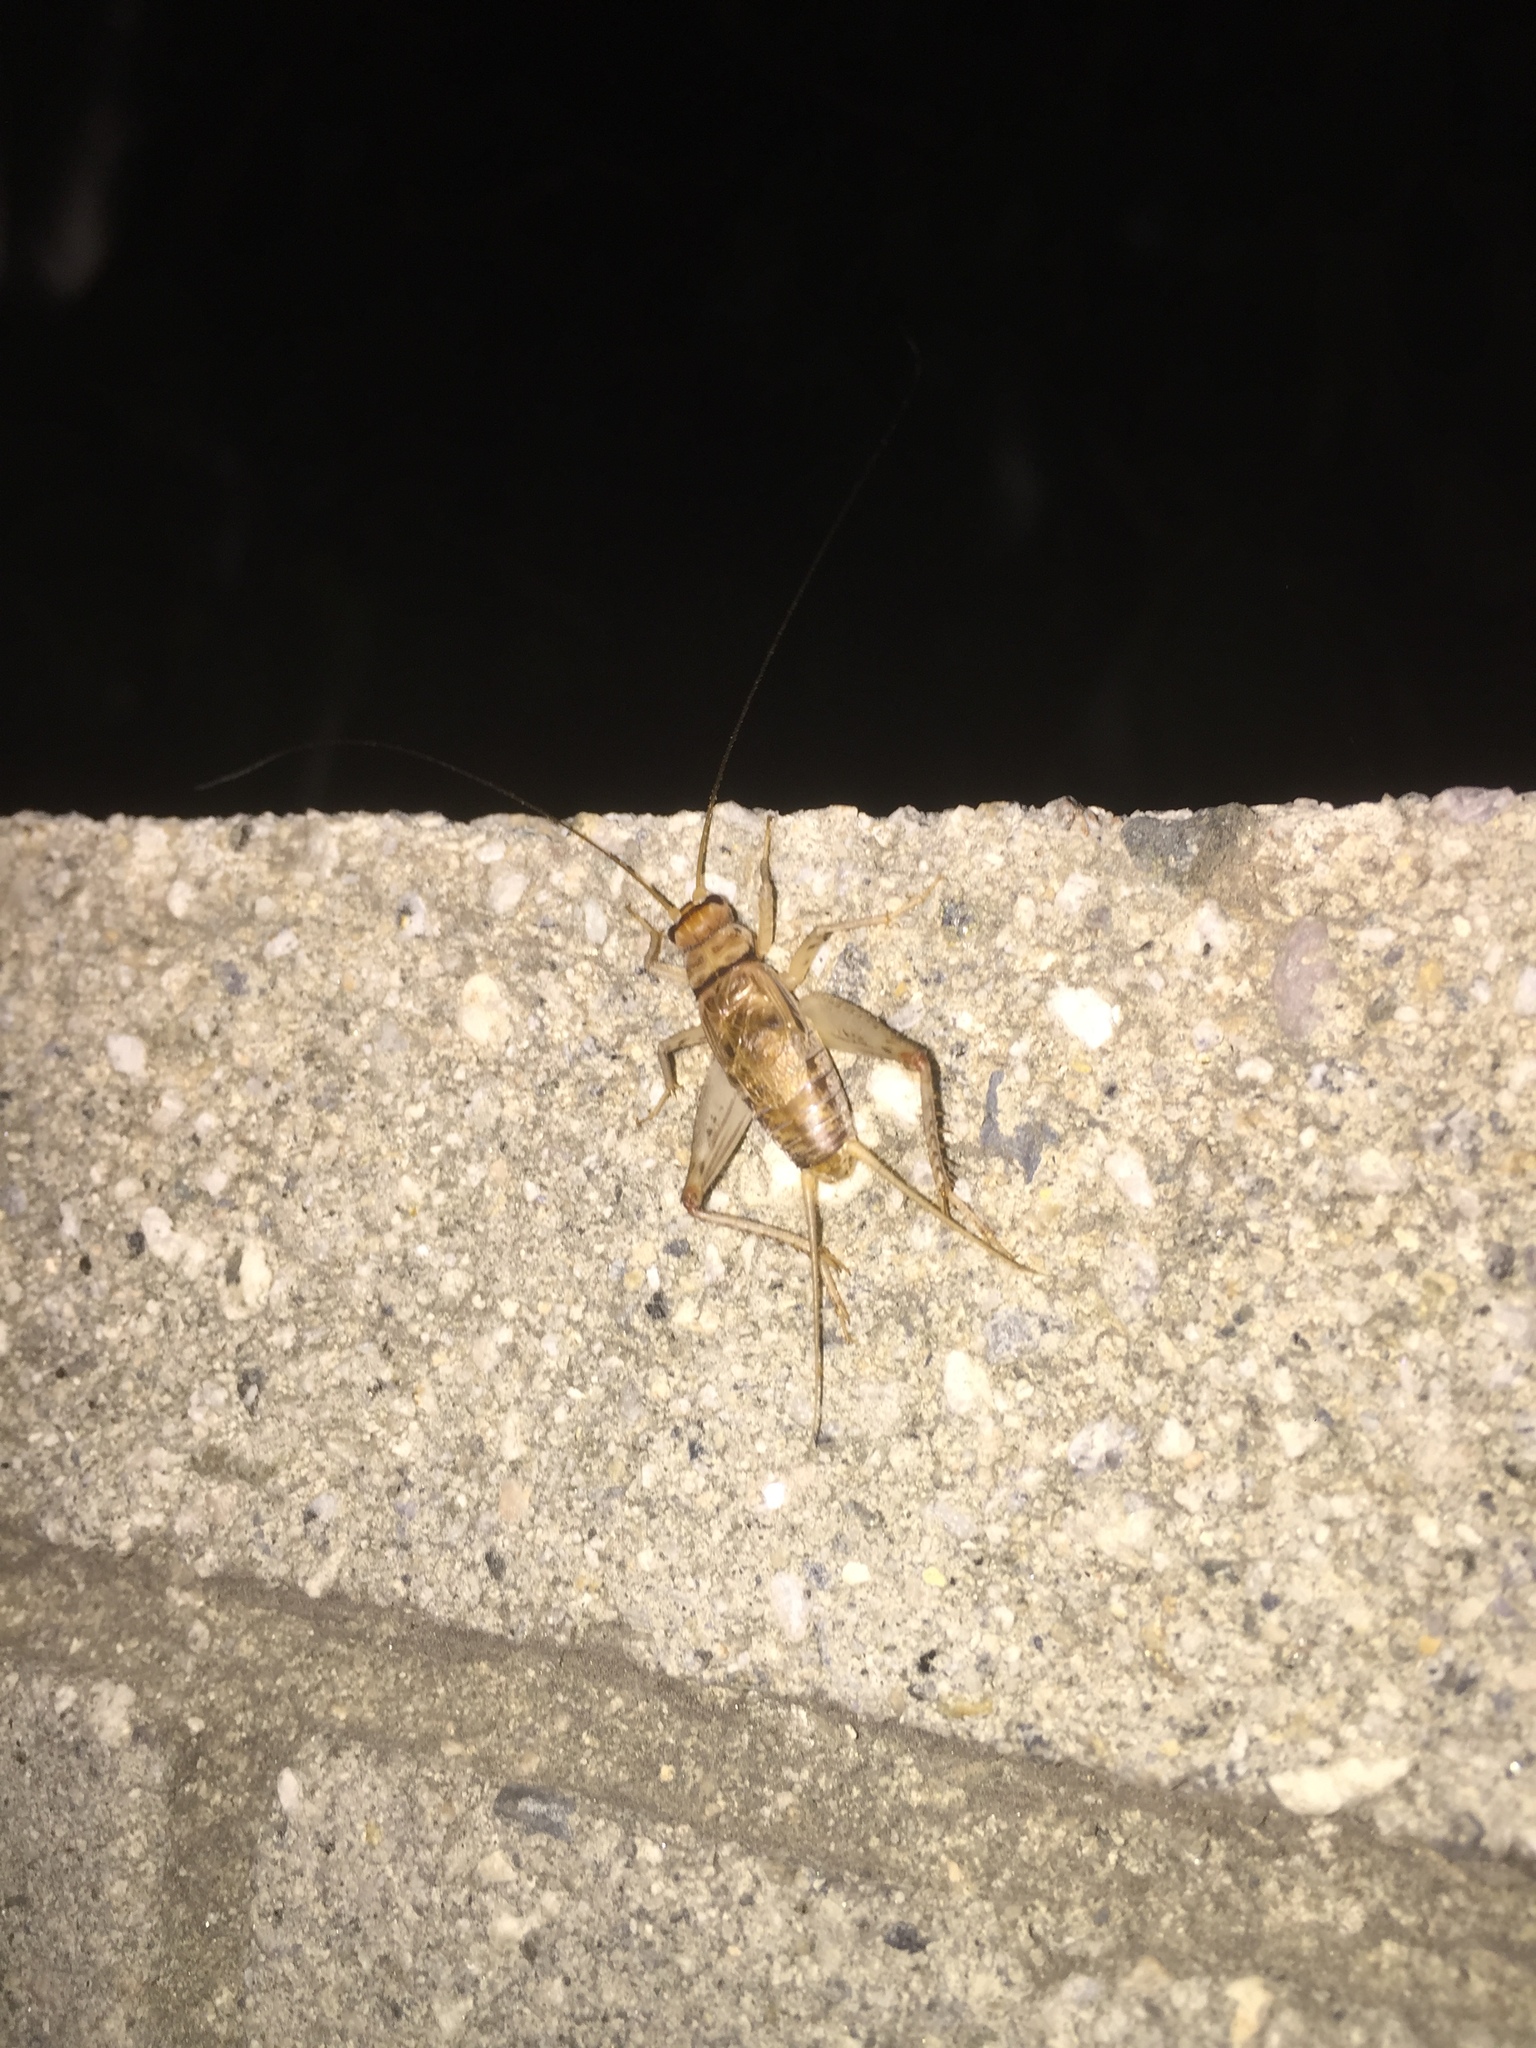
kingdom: Animalia
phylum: Arthropoda
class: Insecta
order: Orthoptera
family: Gryllidae
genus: Gryllodes
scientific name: Gryllodes sigillatus
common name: Tropical house cricket
